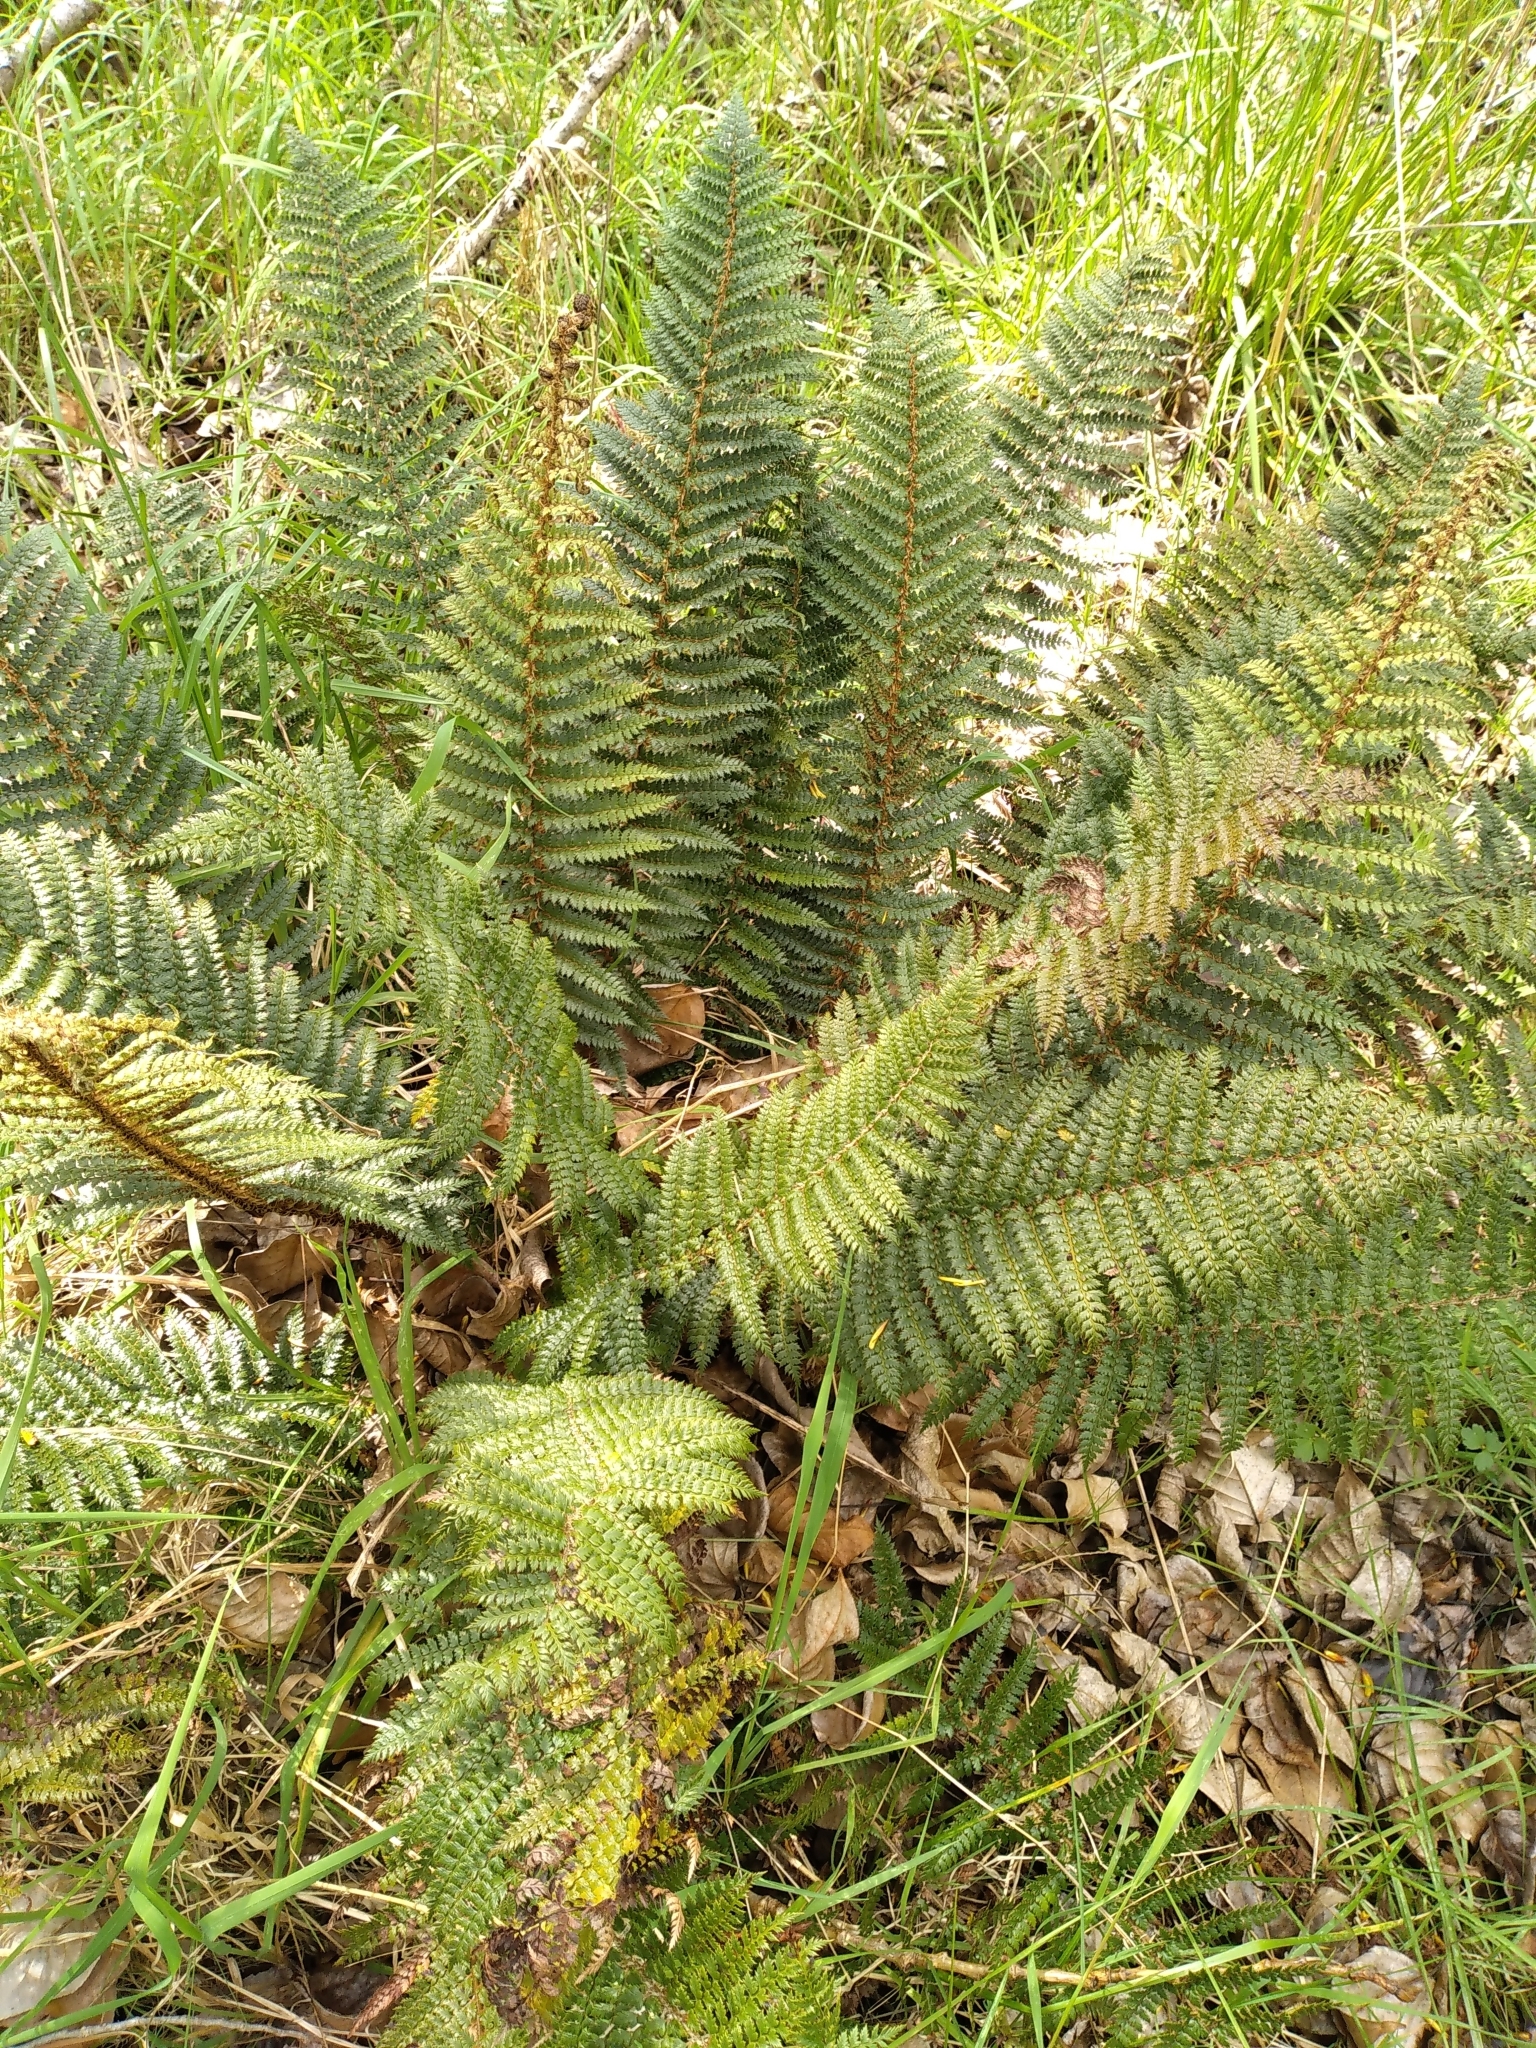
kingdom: Plantae
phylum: Tracheophyta
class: Polypodiopsida
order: Polypodiales
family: Dryopteridaceae
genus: Polystichum
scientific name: Polystichum vestitum
